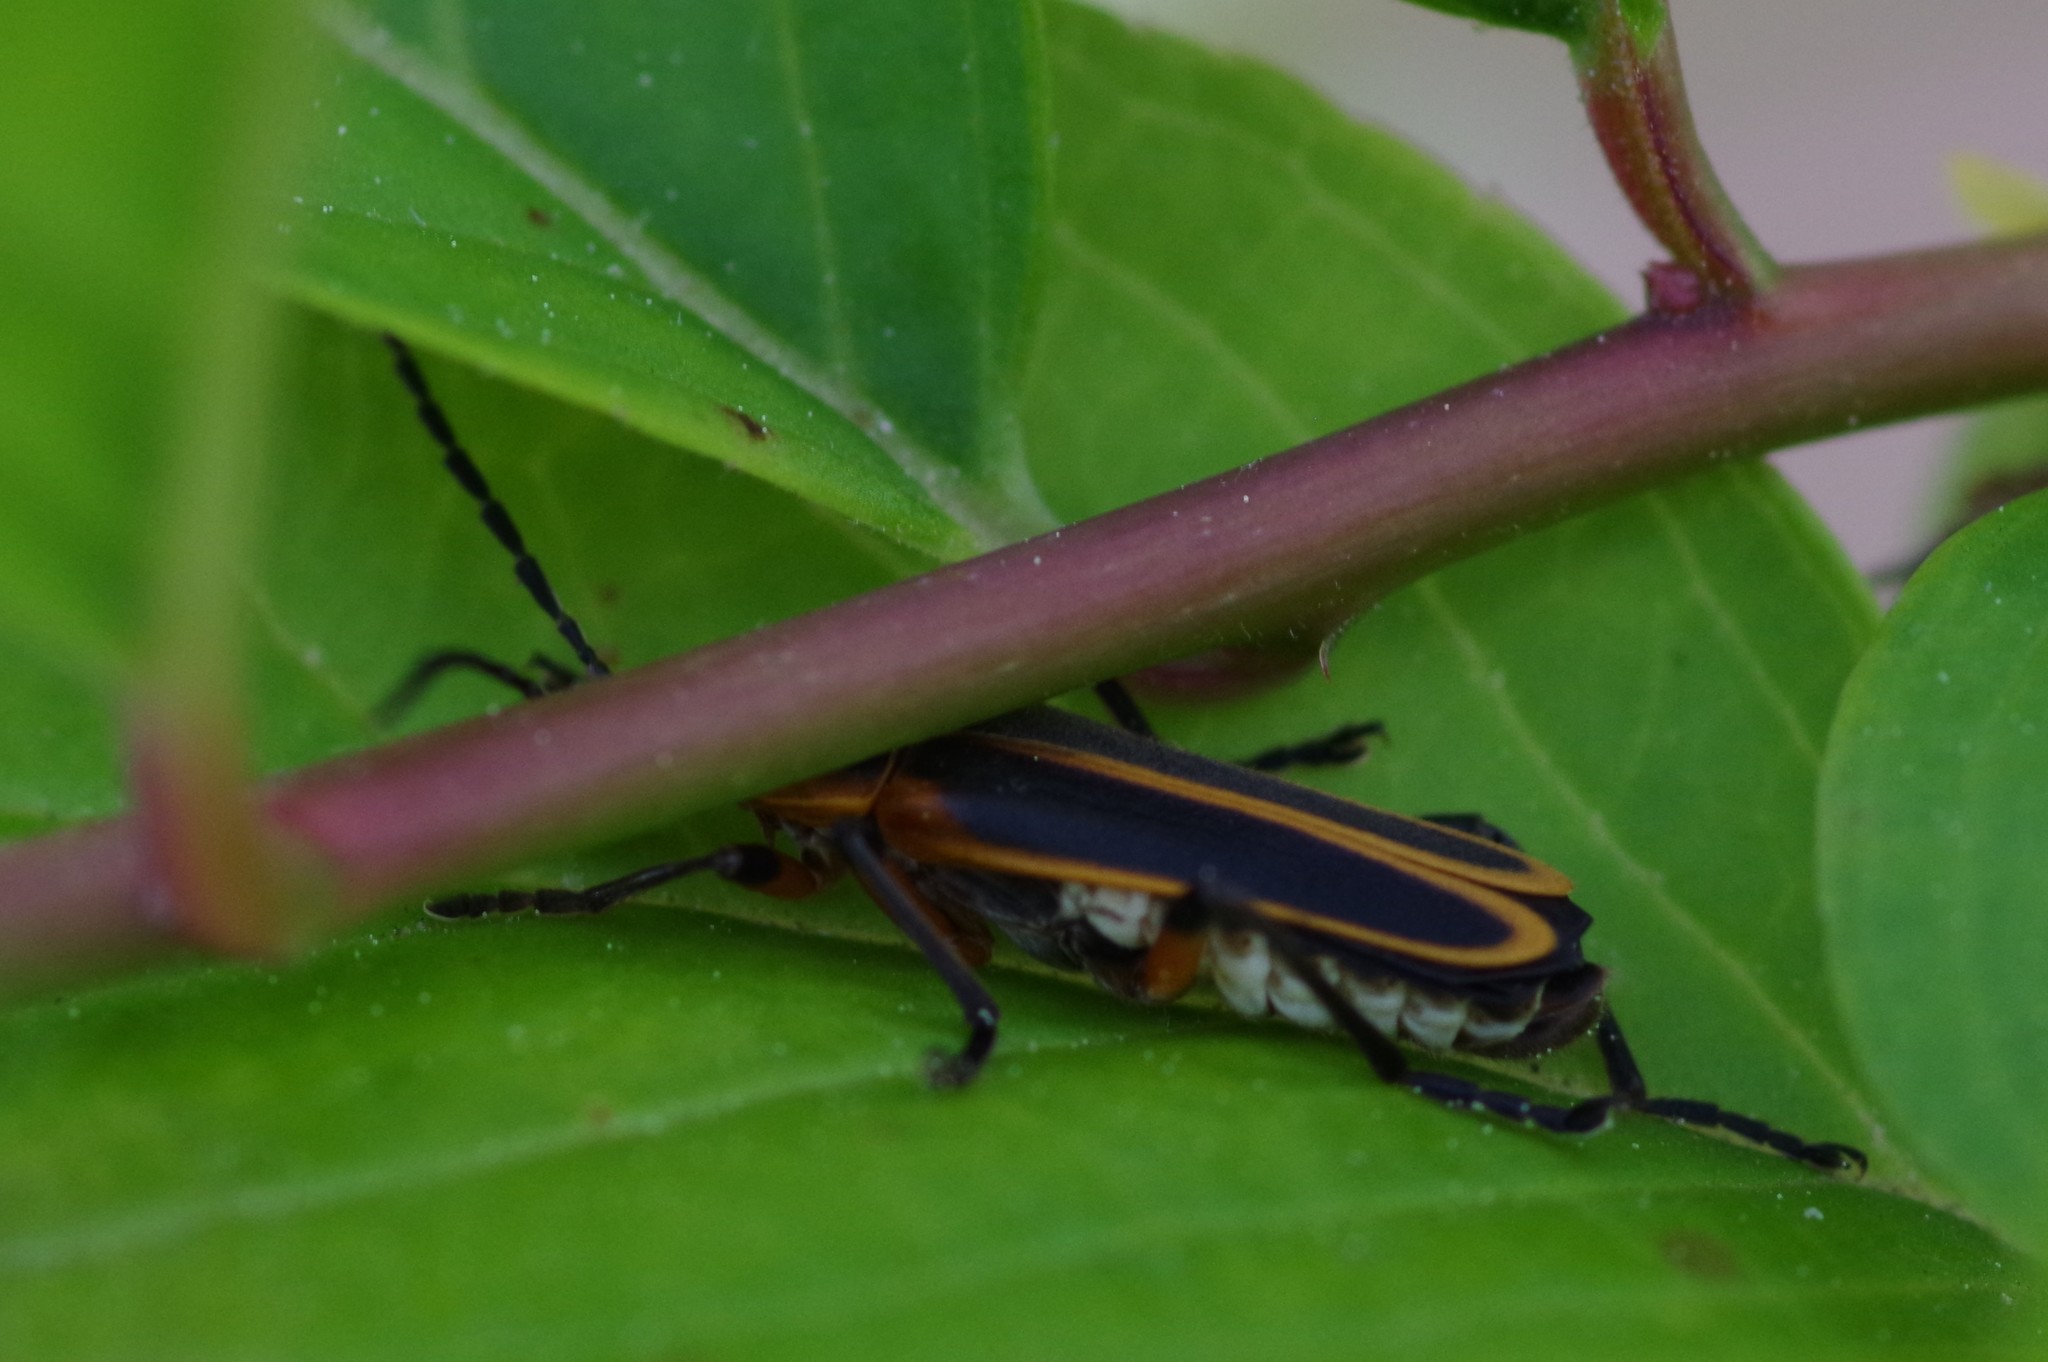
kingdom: Animalia
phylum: Arthropoda
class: Insecta
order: Coleoptera
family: Cantharidae
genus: Chauliognathus
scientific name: Chauliognathus marginatus
